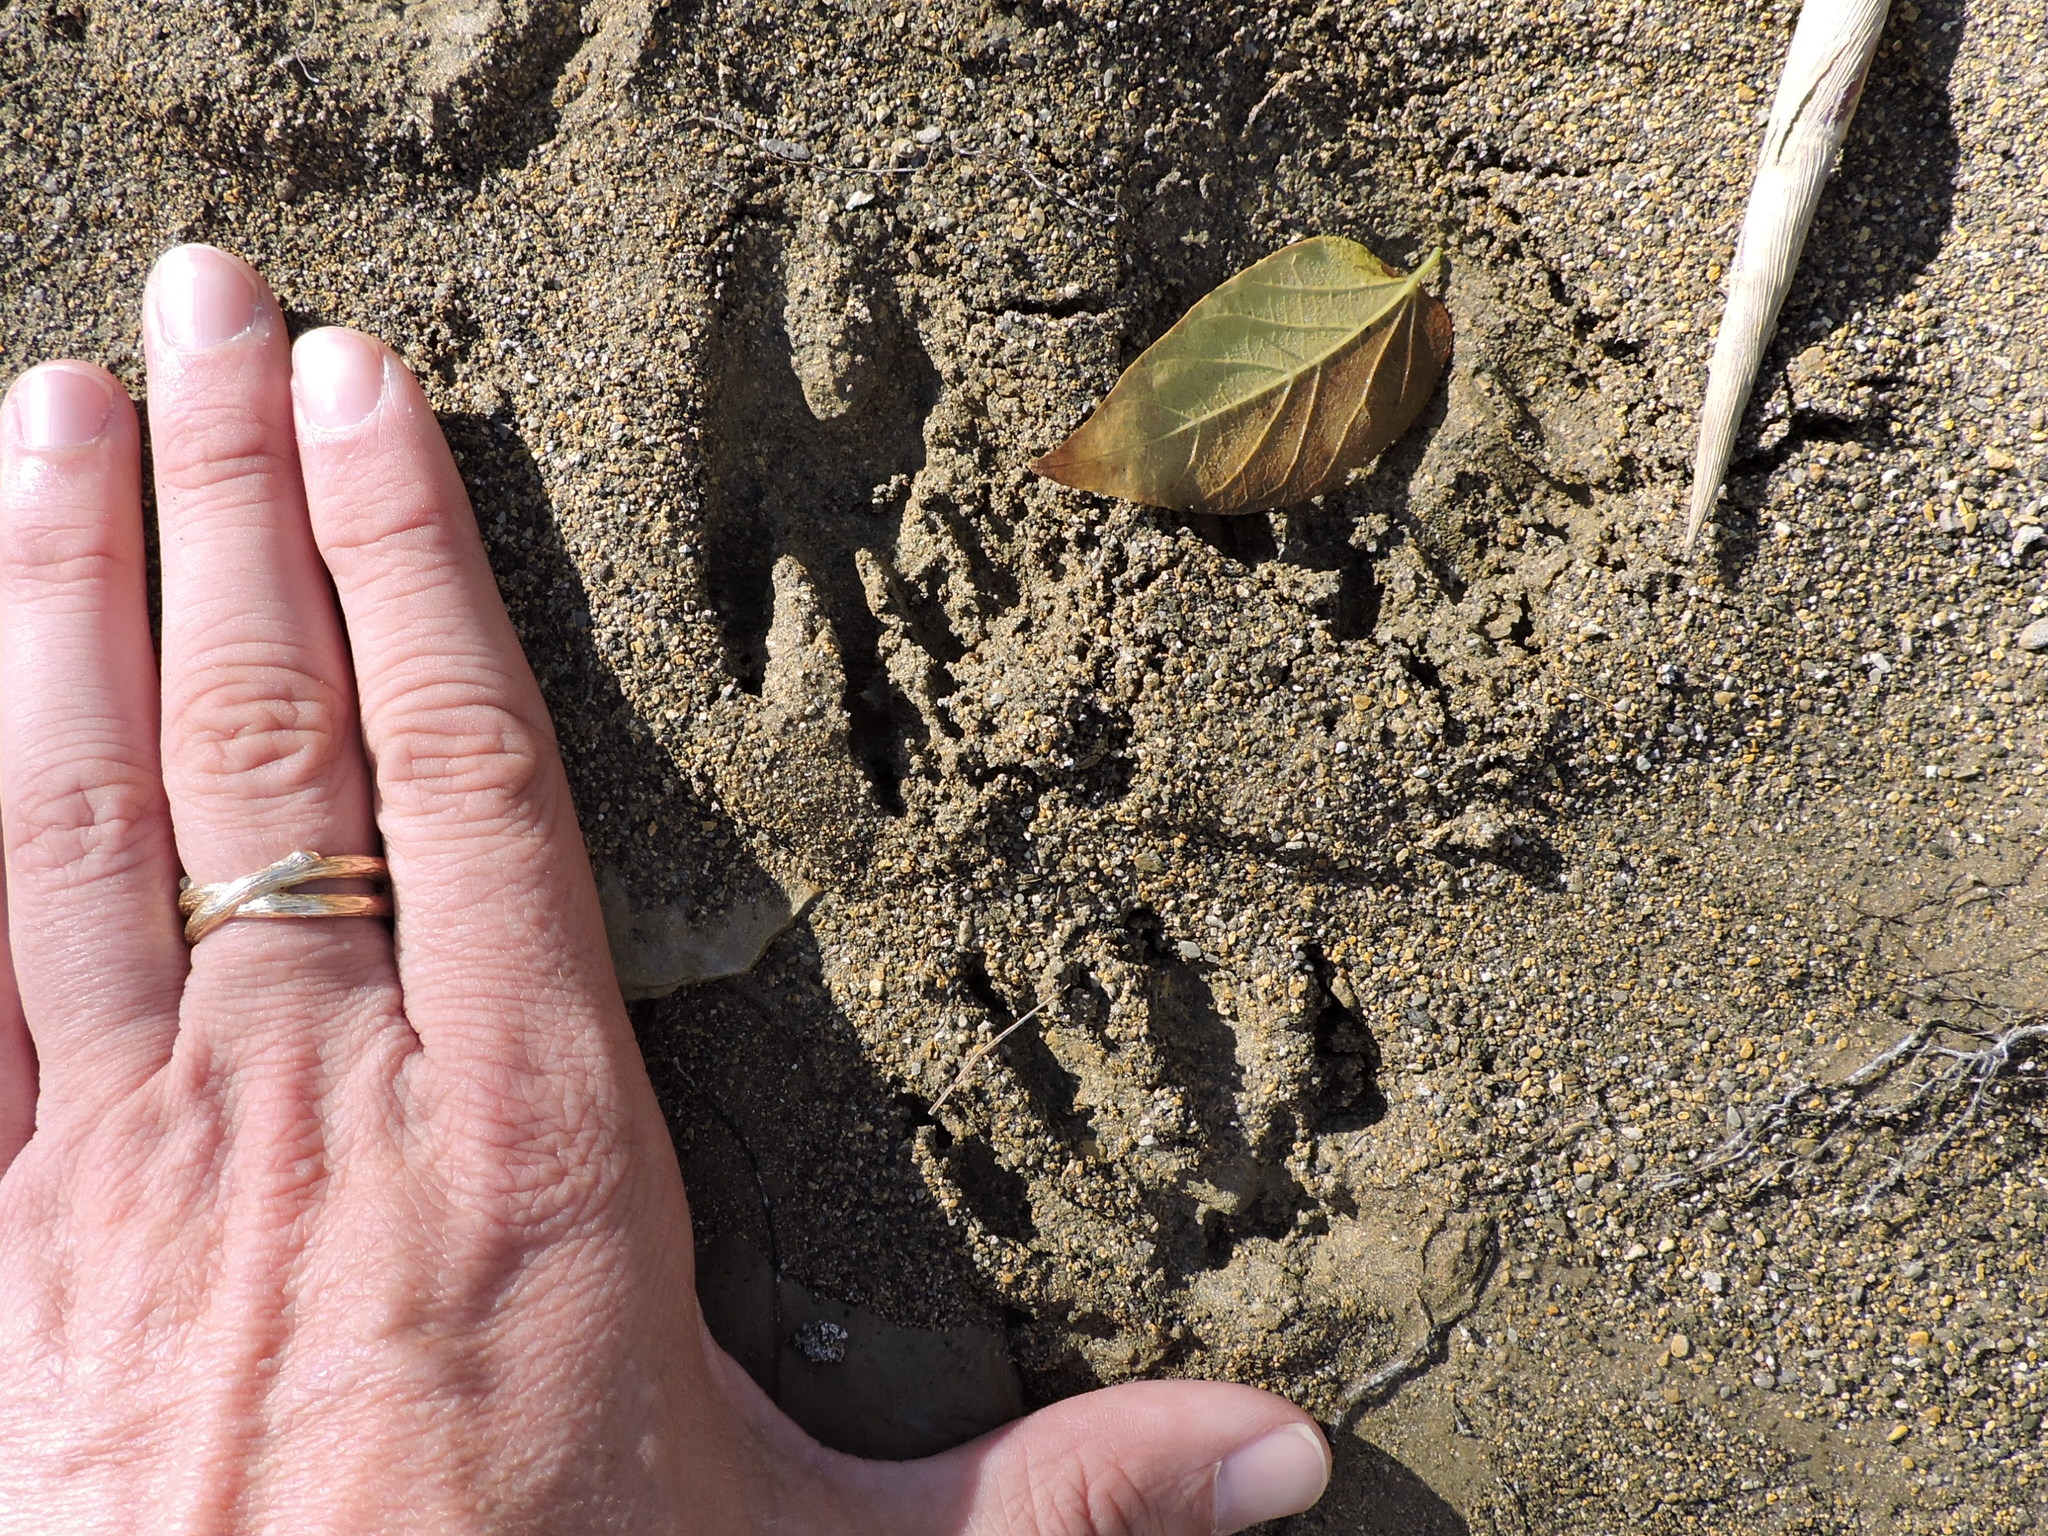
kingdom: Animalia
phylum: Chordata
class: Mammalia
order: Carnivora
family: Procyonidae
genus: Procyon
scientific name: Procyon lotor
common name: Raccoon
